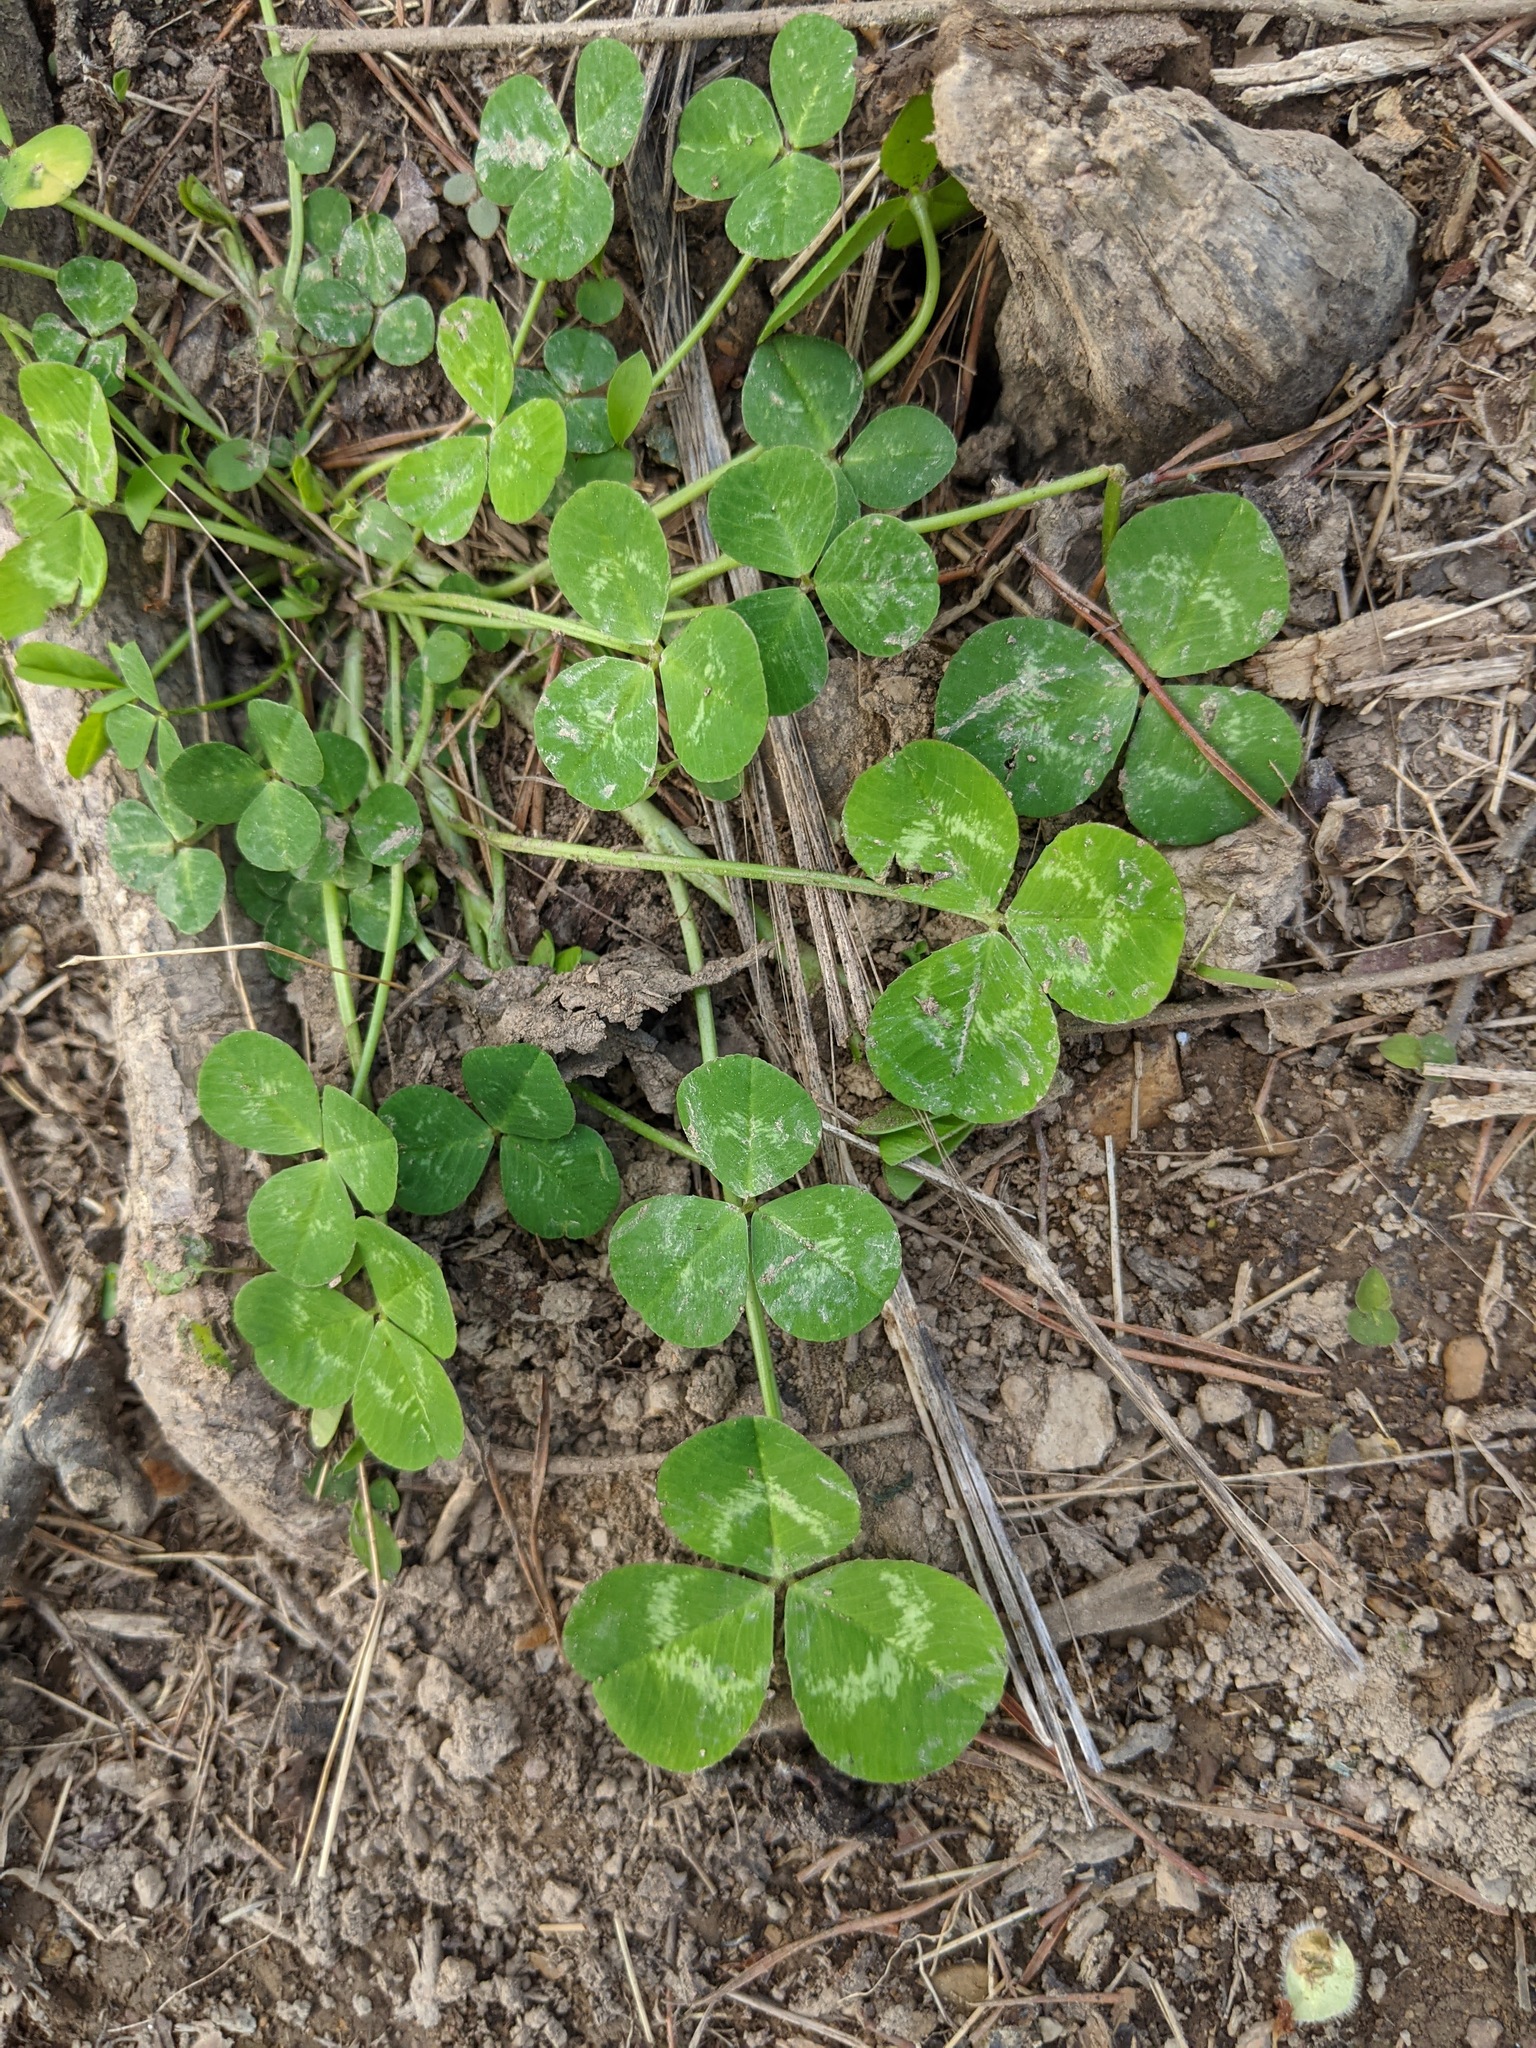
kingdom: Plantae
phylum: Tracheophyta
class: Magnoliopsida
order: Fabales
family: Fabaceae
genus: Trifolium
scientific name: Trifolium repens
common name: White clover
